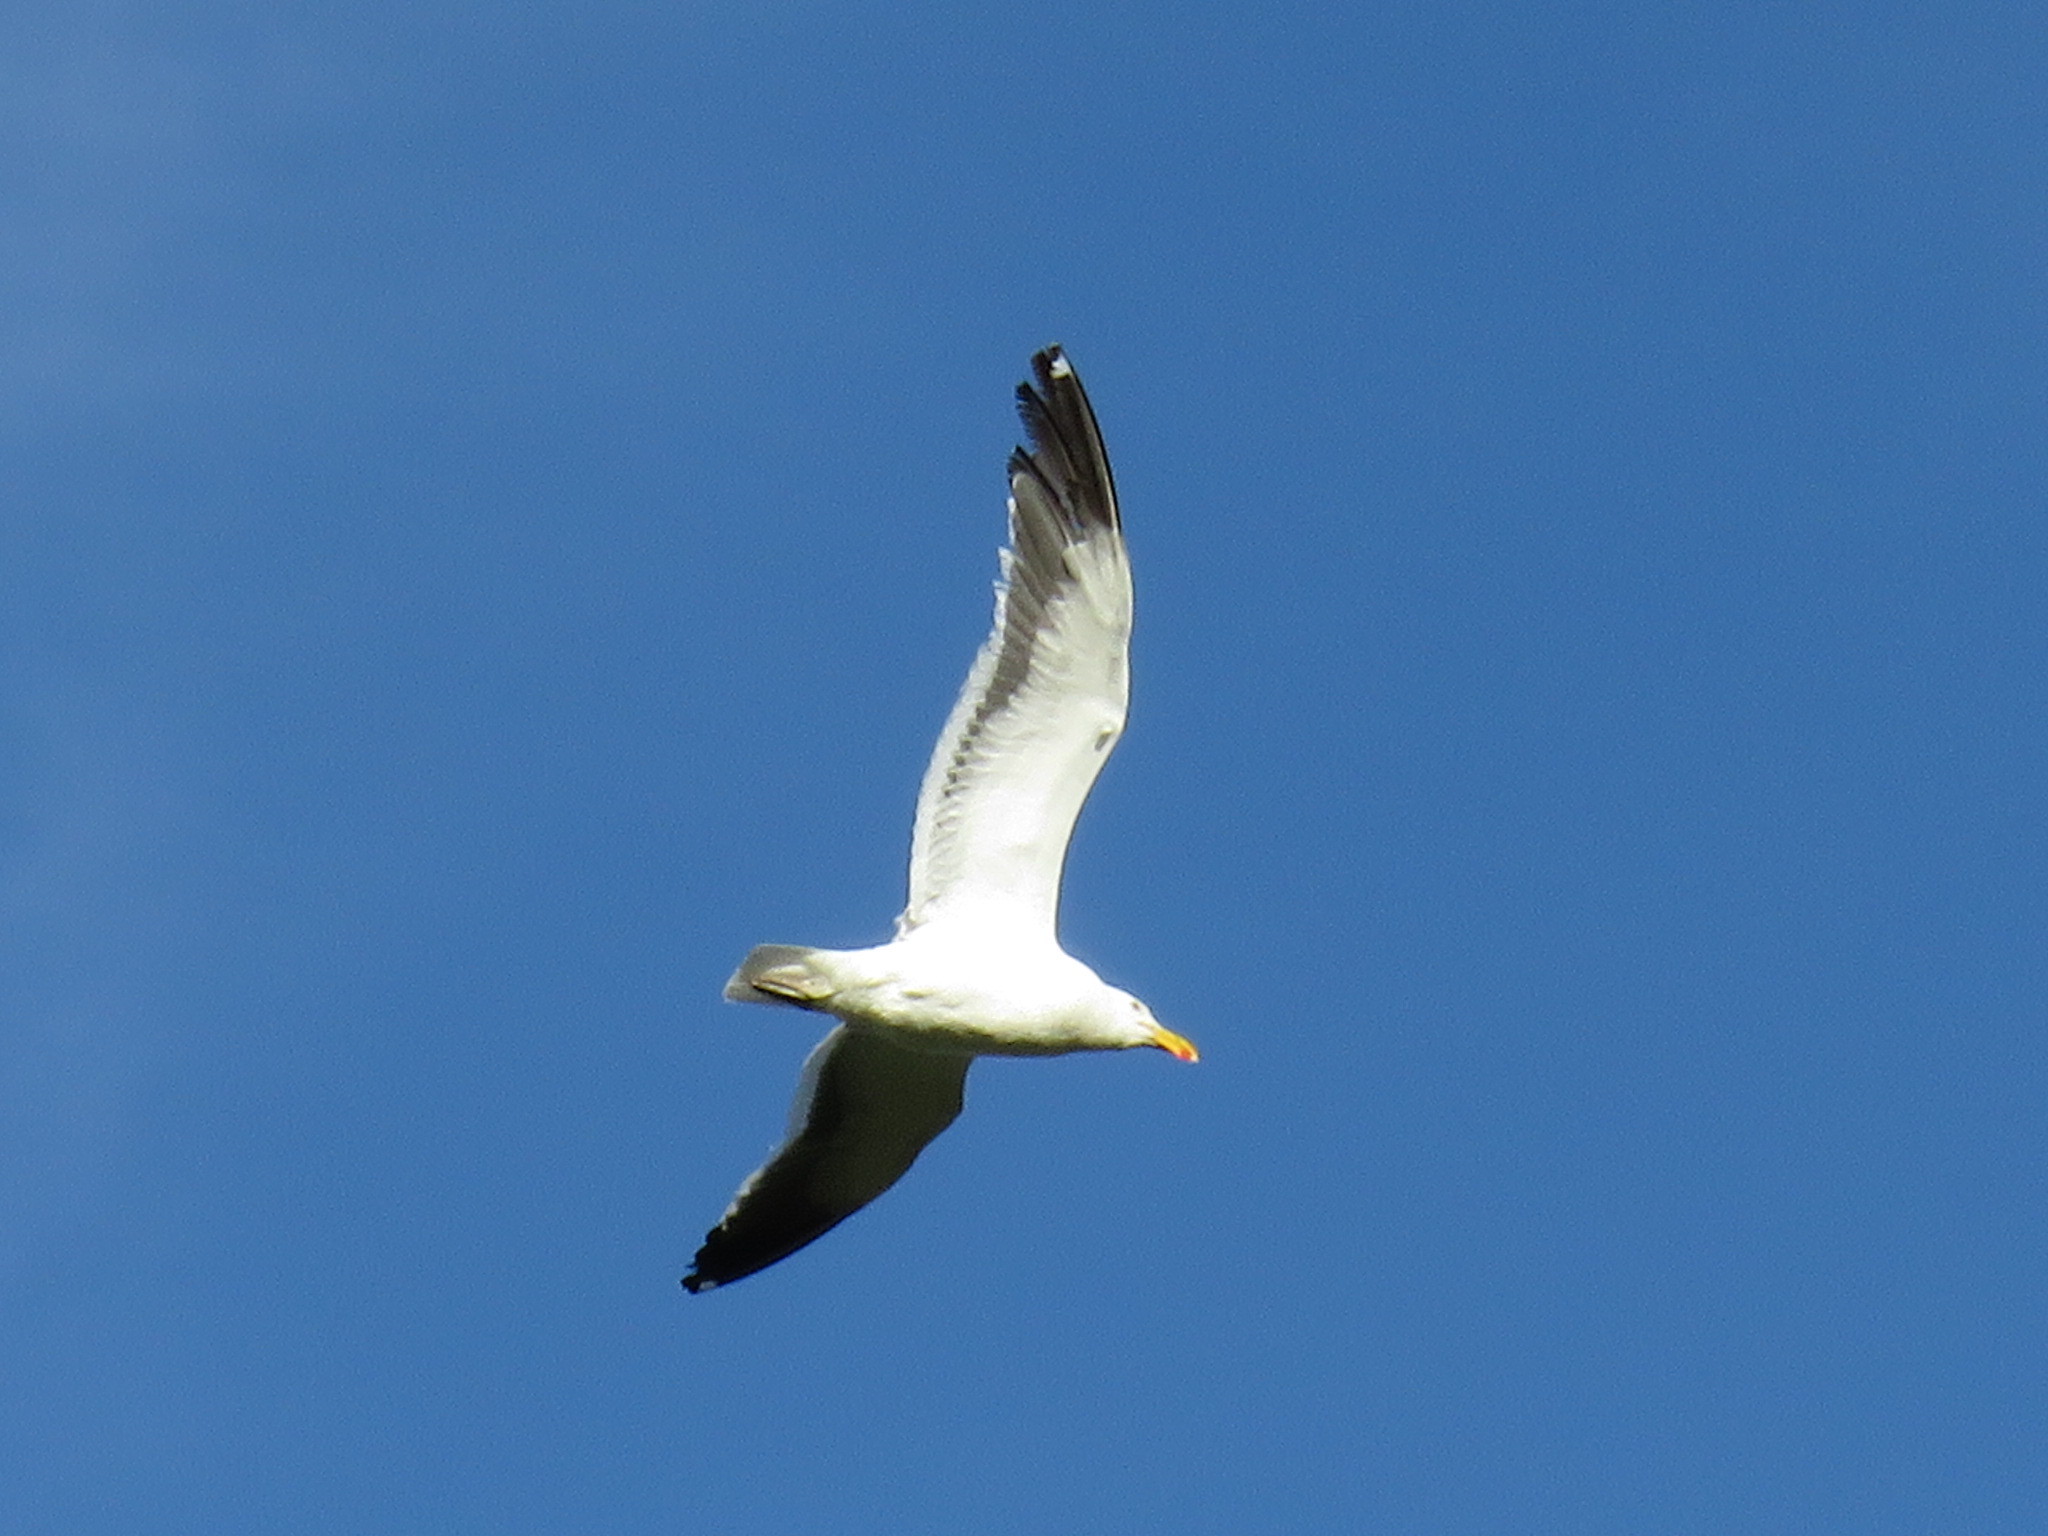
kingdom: Animalia
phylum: Chordata
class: Aves
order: Charadriiformes
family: Laridae
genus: Larus
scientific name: Larus dominicanus
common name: Kelp gull
